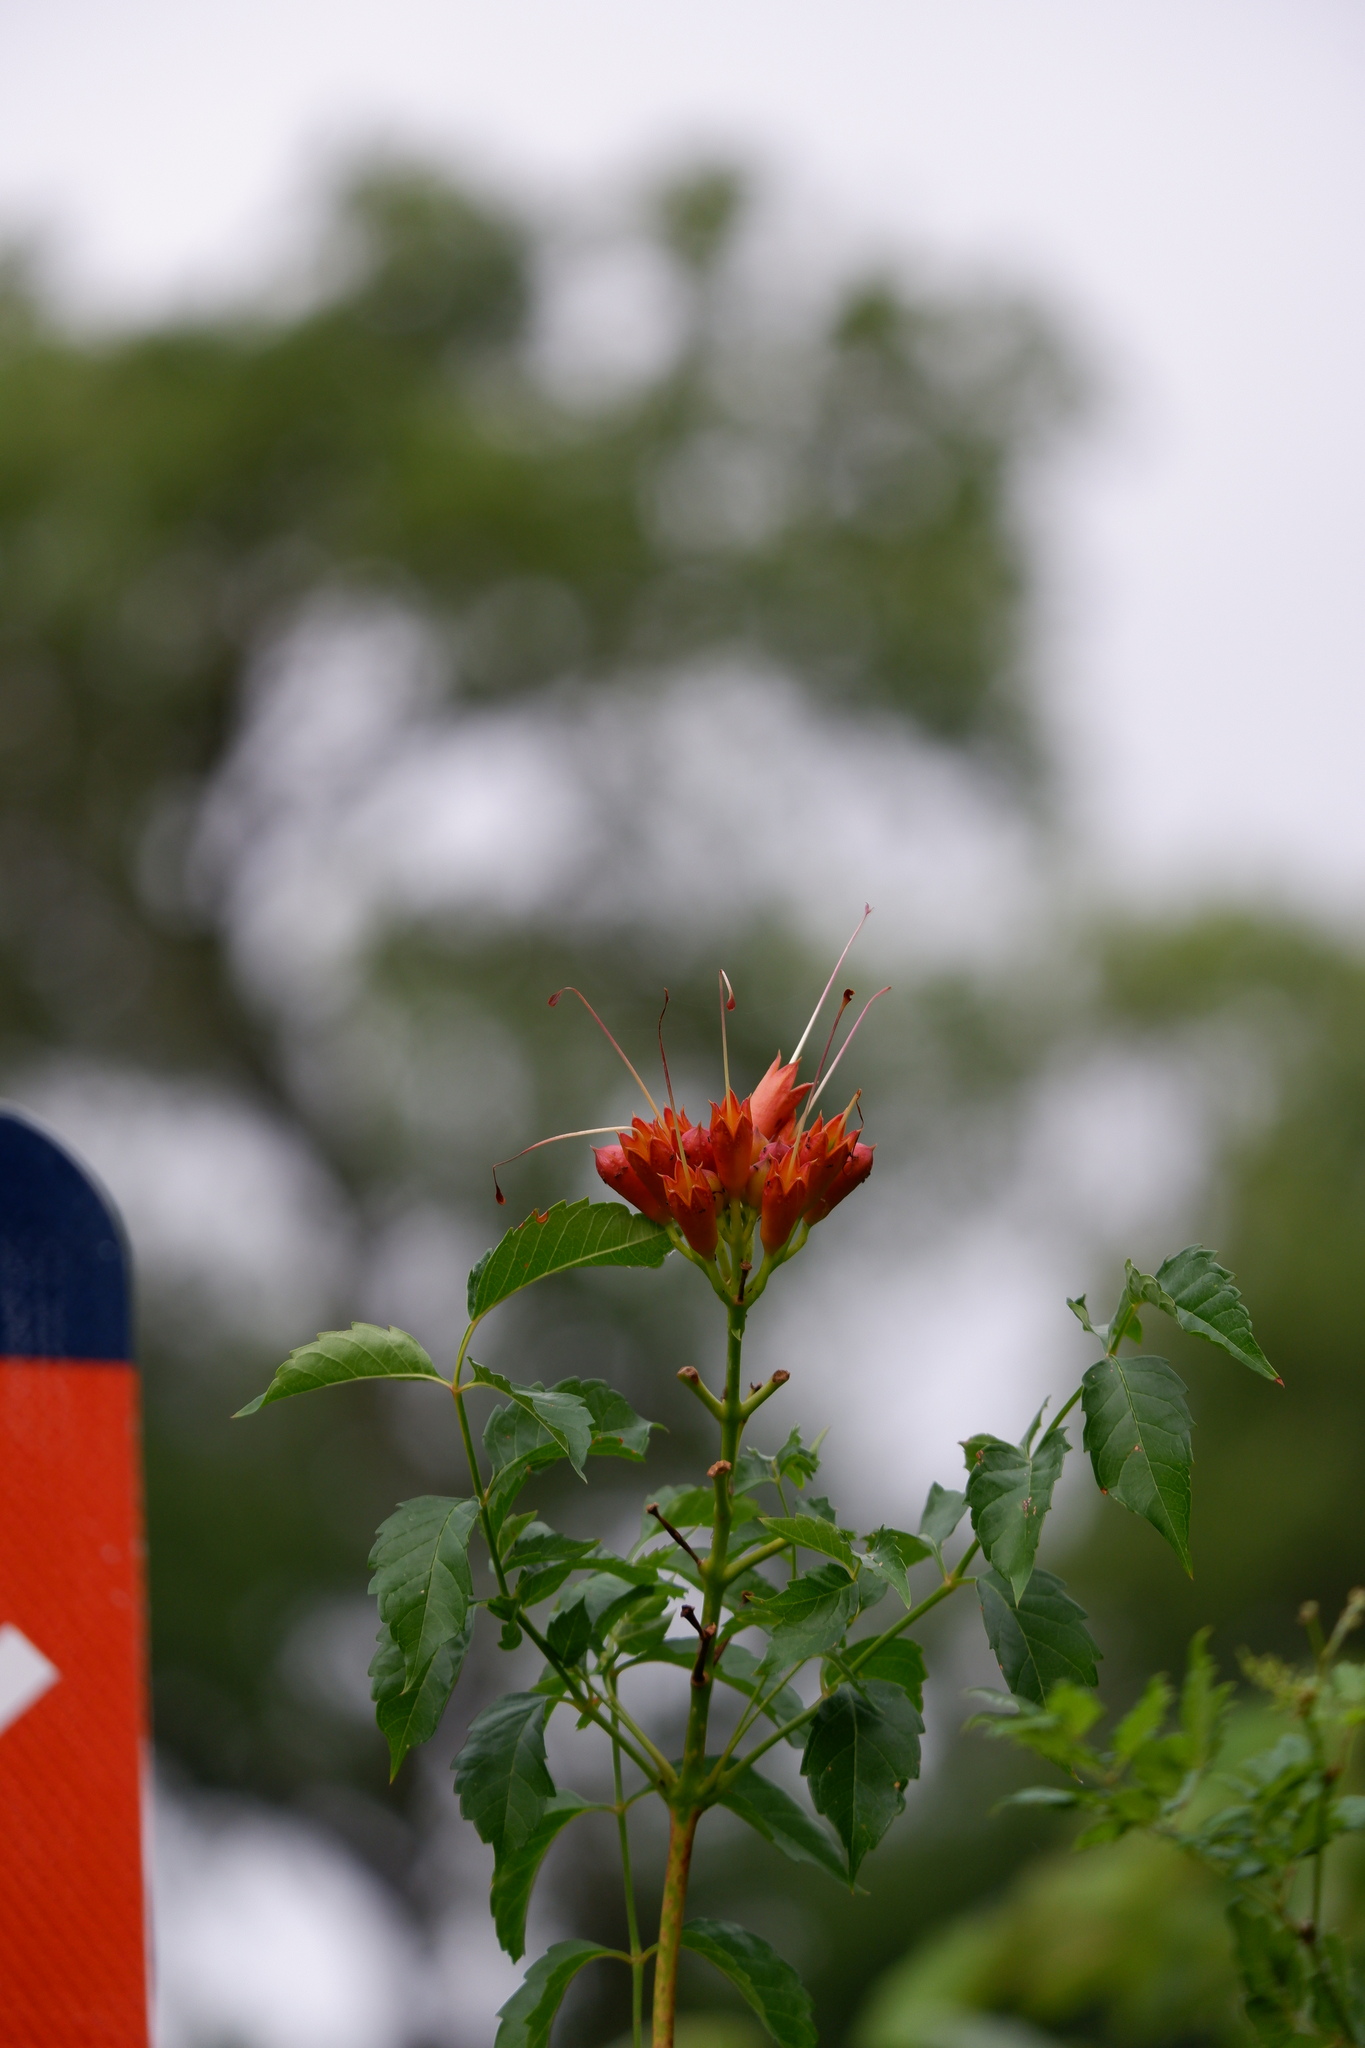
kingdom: Plantae
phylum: Tracheophyta
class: Magnoliopsida
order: Lamiales
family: Bignoniaceae
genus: Campsis
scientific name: Campsis radicans
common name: Trumpet-creeper
